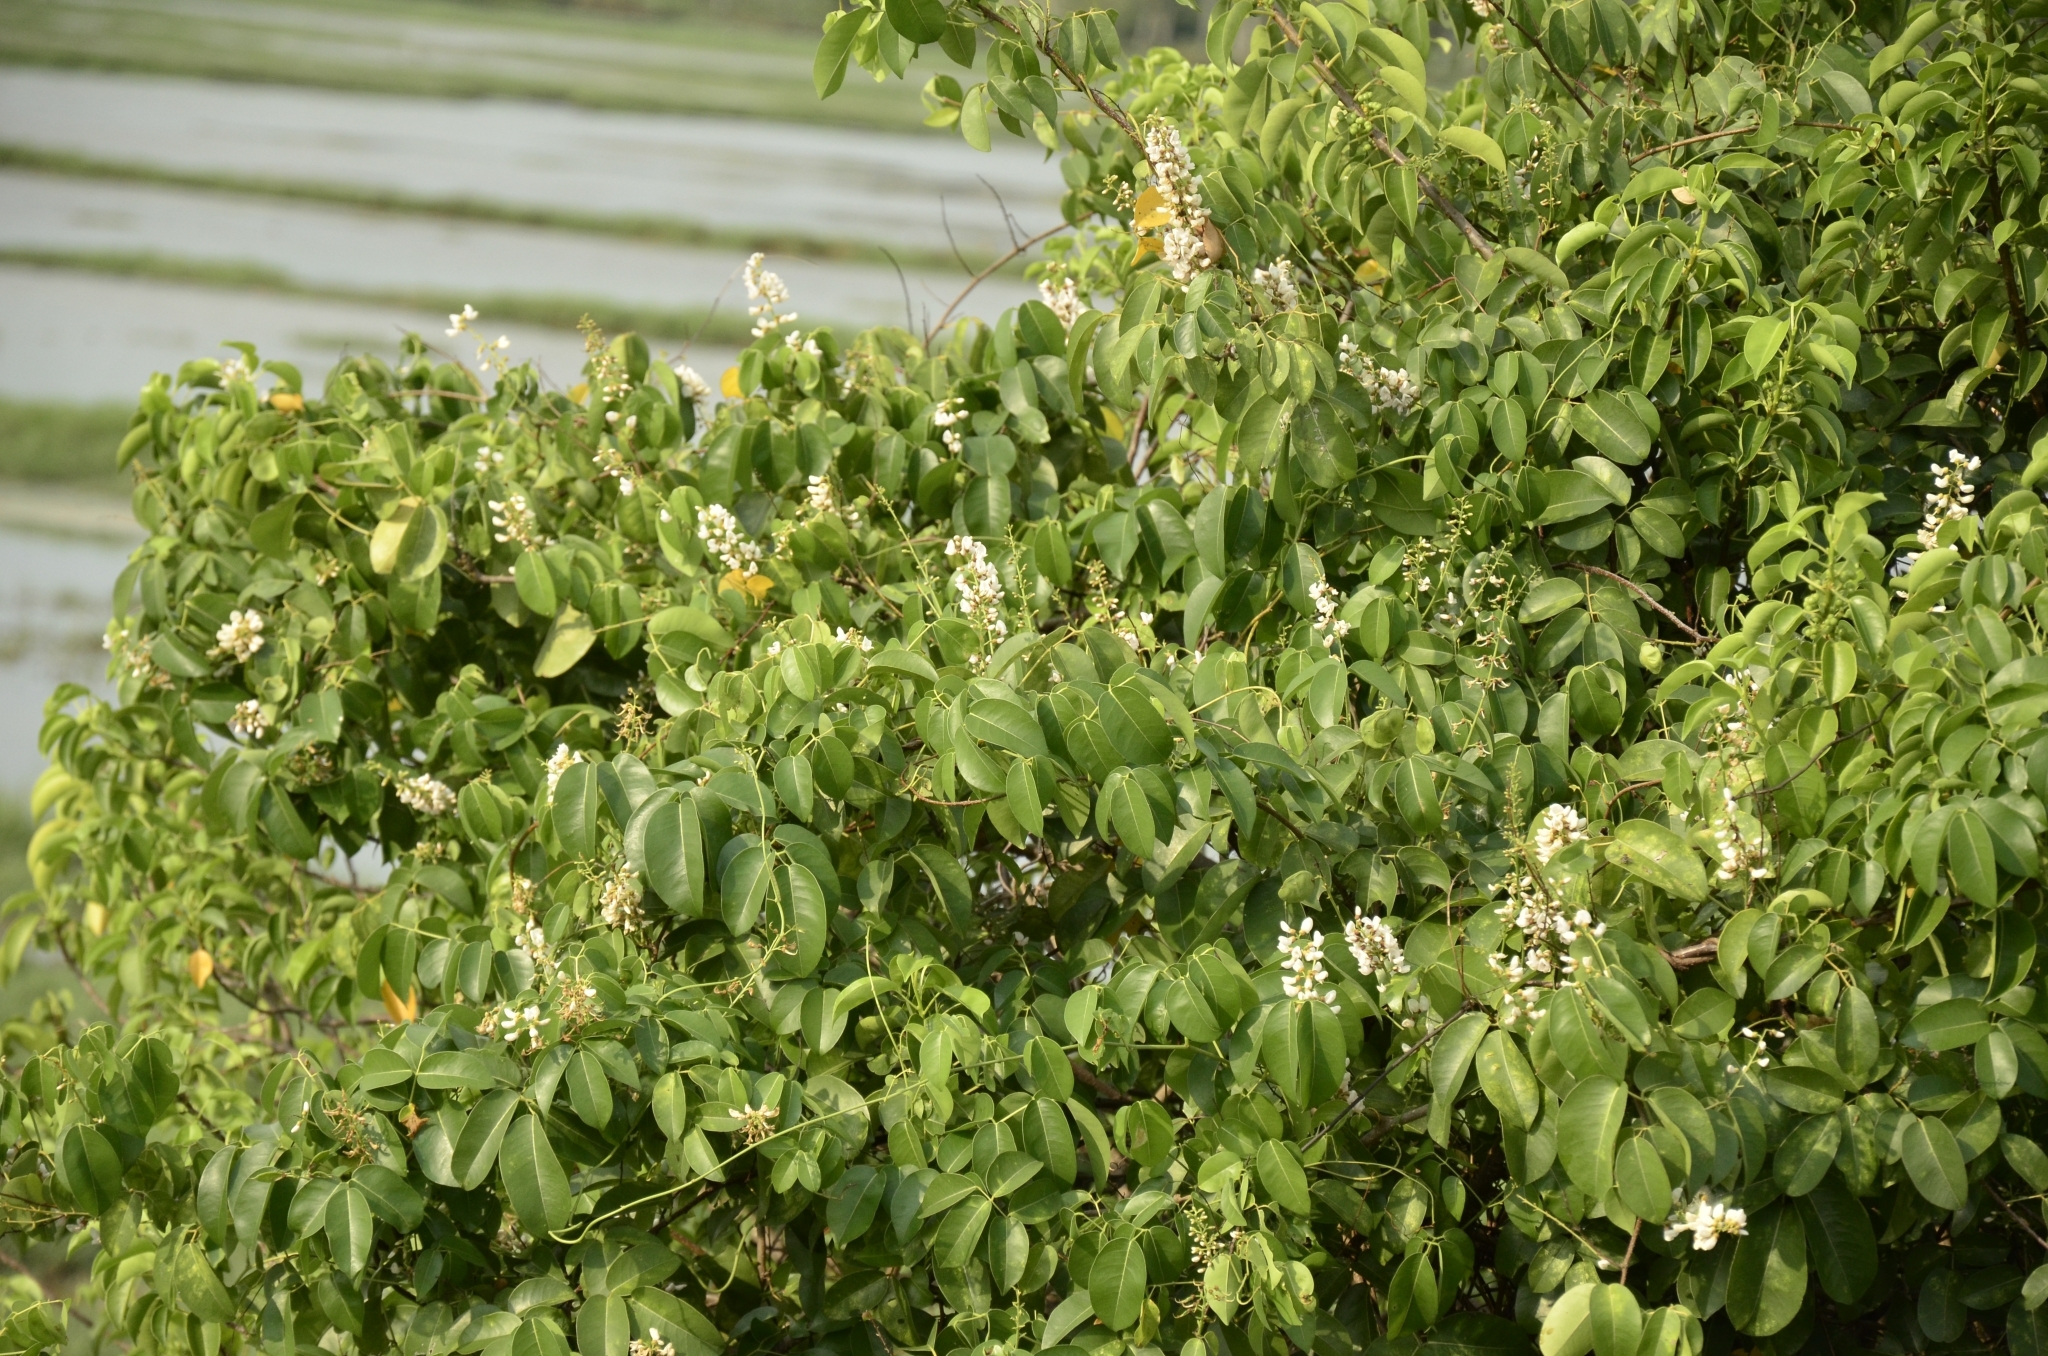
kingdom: Plantae
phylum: Tracheophyta
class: Magnoliopsida
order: Fabales
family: Fabaceae
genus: Derris
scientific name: Derris trifoliata
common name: Three-leaf derris
